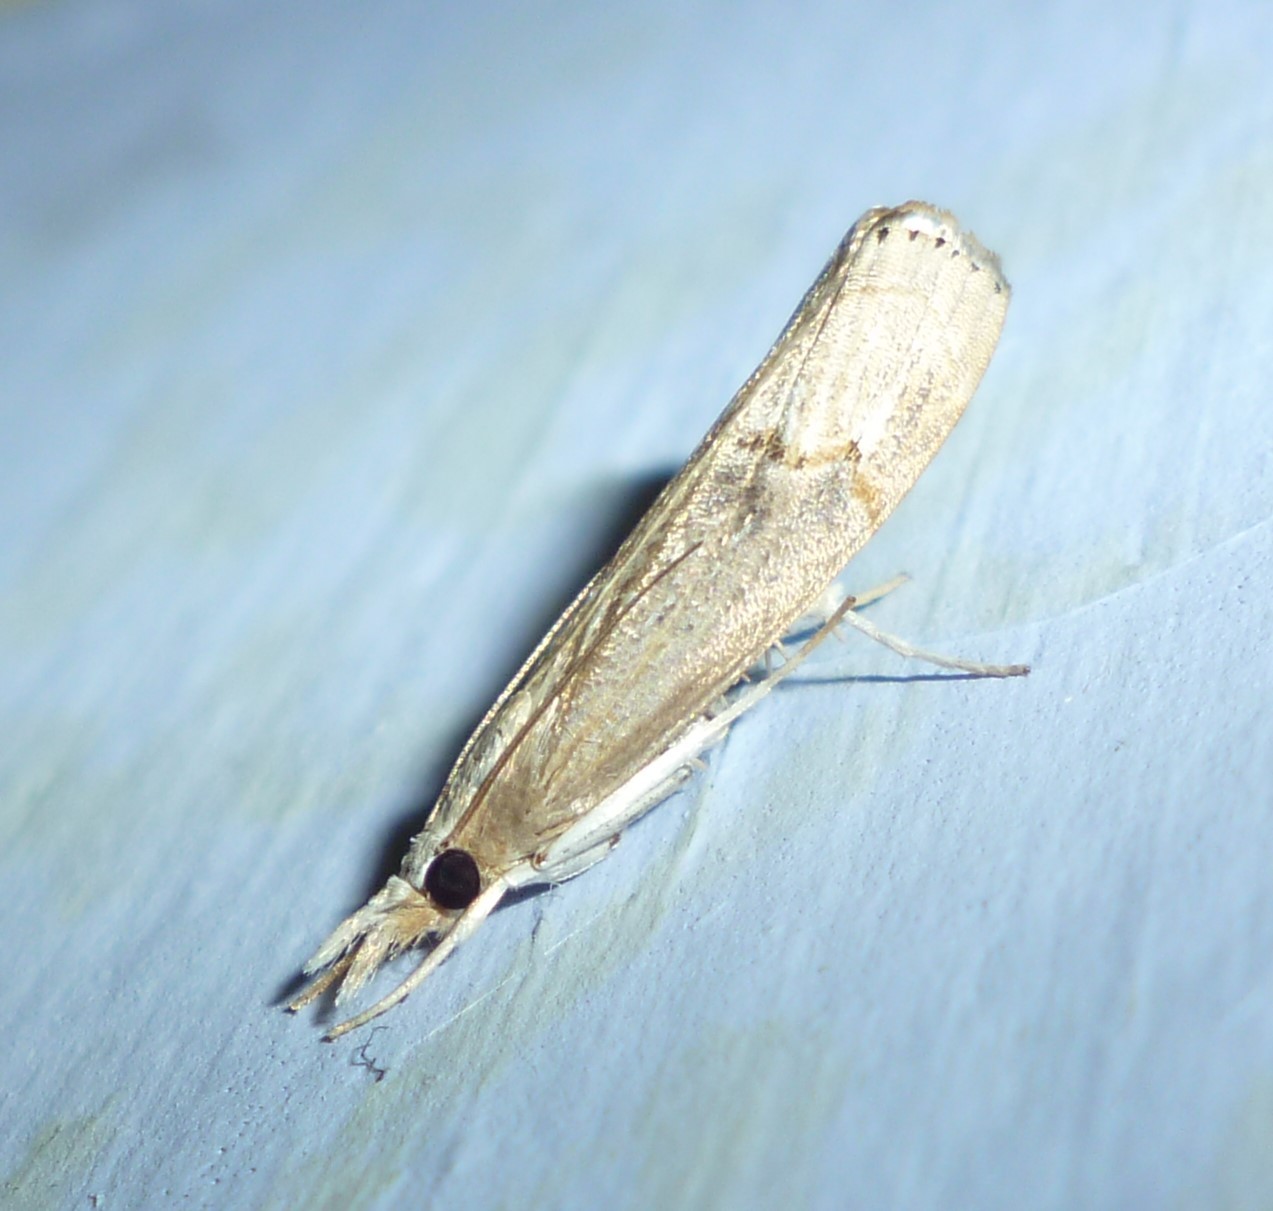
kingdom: Animalia
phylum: Arthropoda
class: Insecta
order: Lepidoptera
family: Crambidae
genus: Parapediasia
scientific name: Parapediasia teterellus
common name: Bluegrass webworm moth
